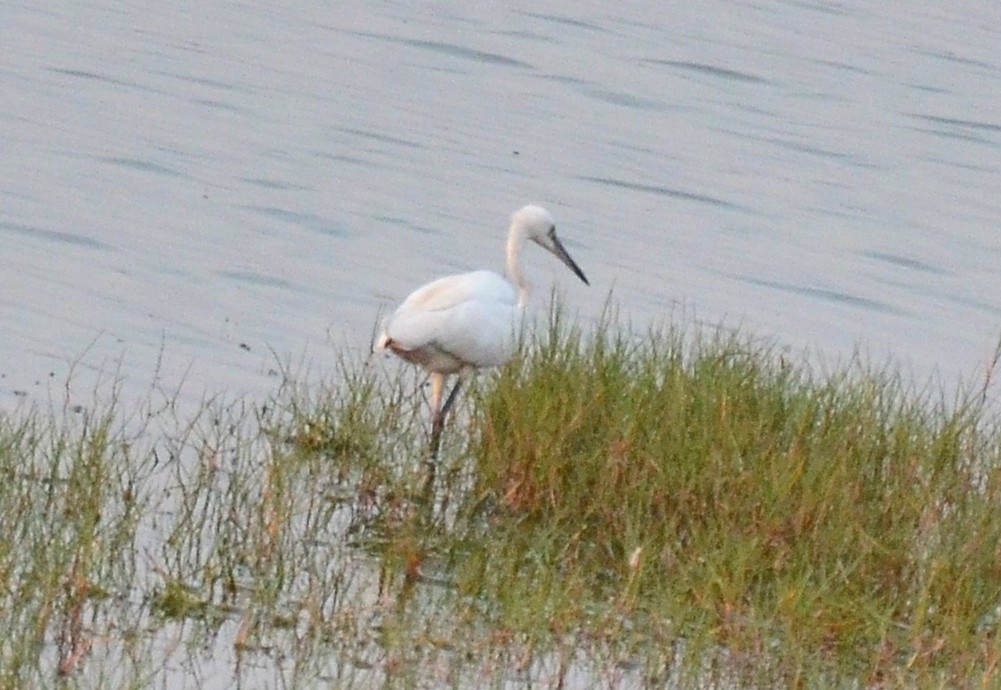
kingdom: Animalia
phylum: Chordata
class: Aves
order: Pelecaniformes
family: Ardeidae
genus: Egretta
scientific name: Egretta garzetta
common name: Little egret
